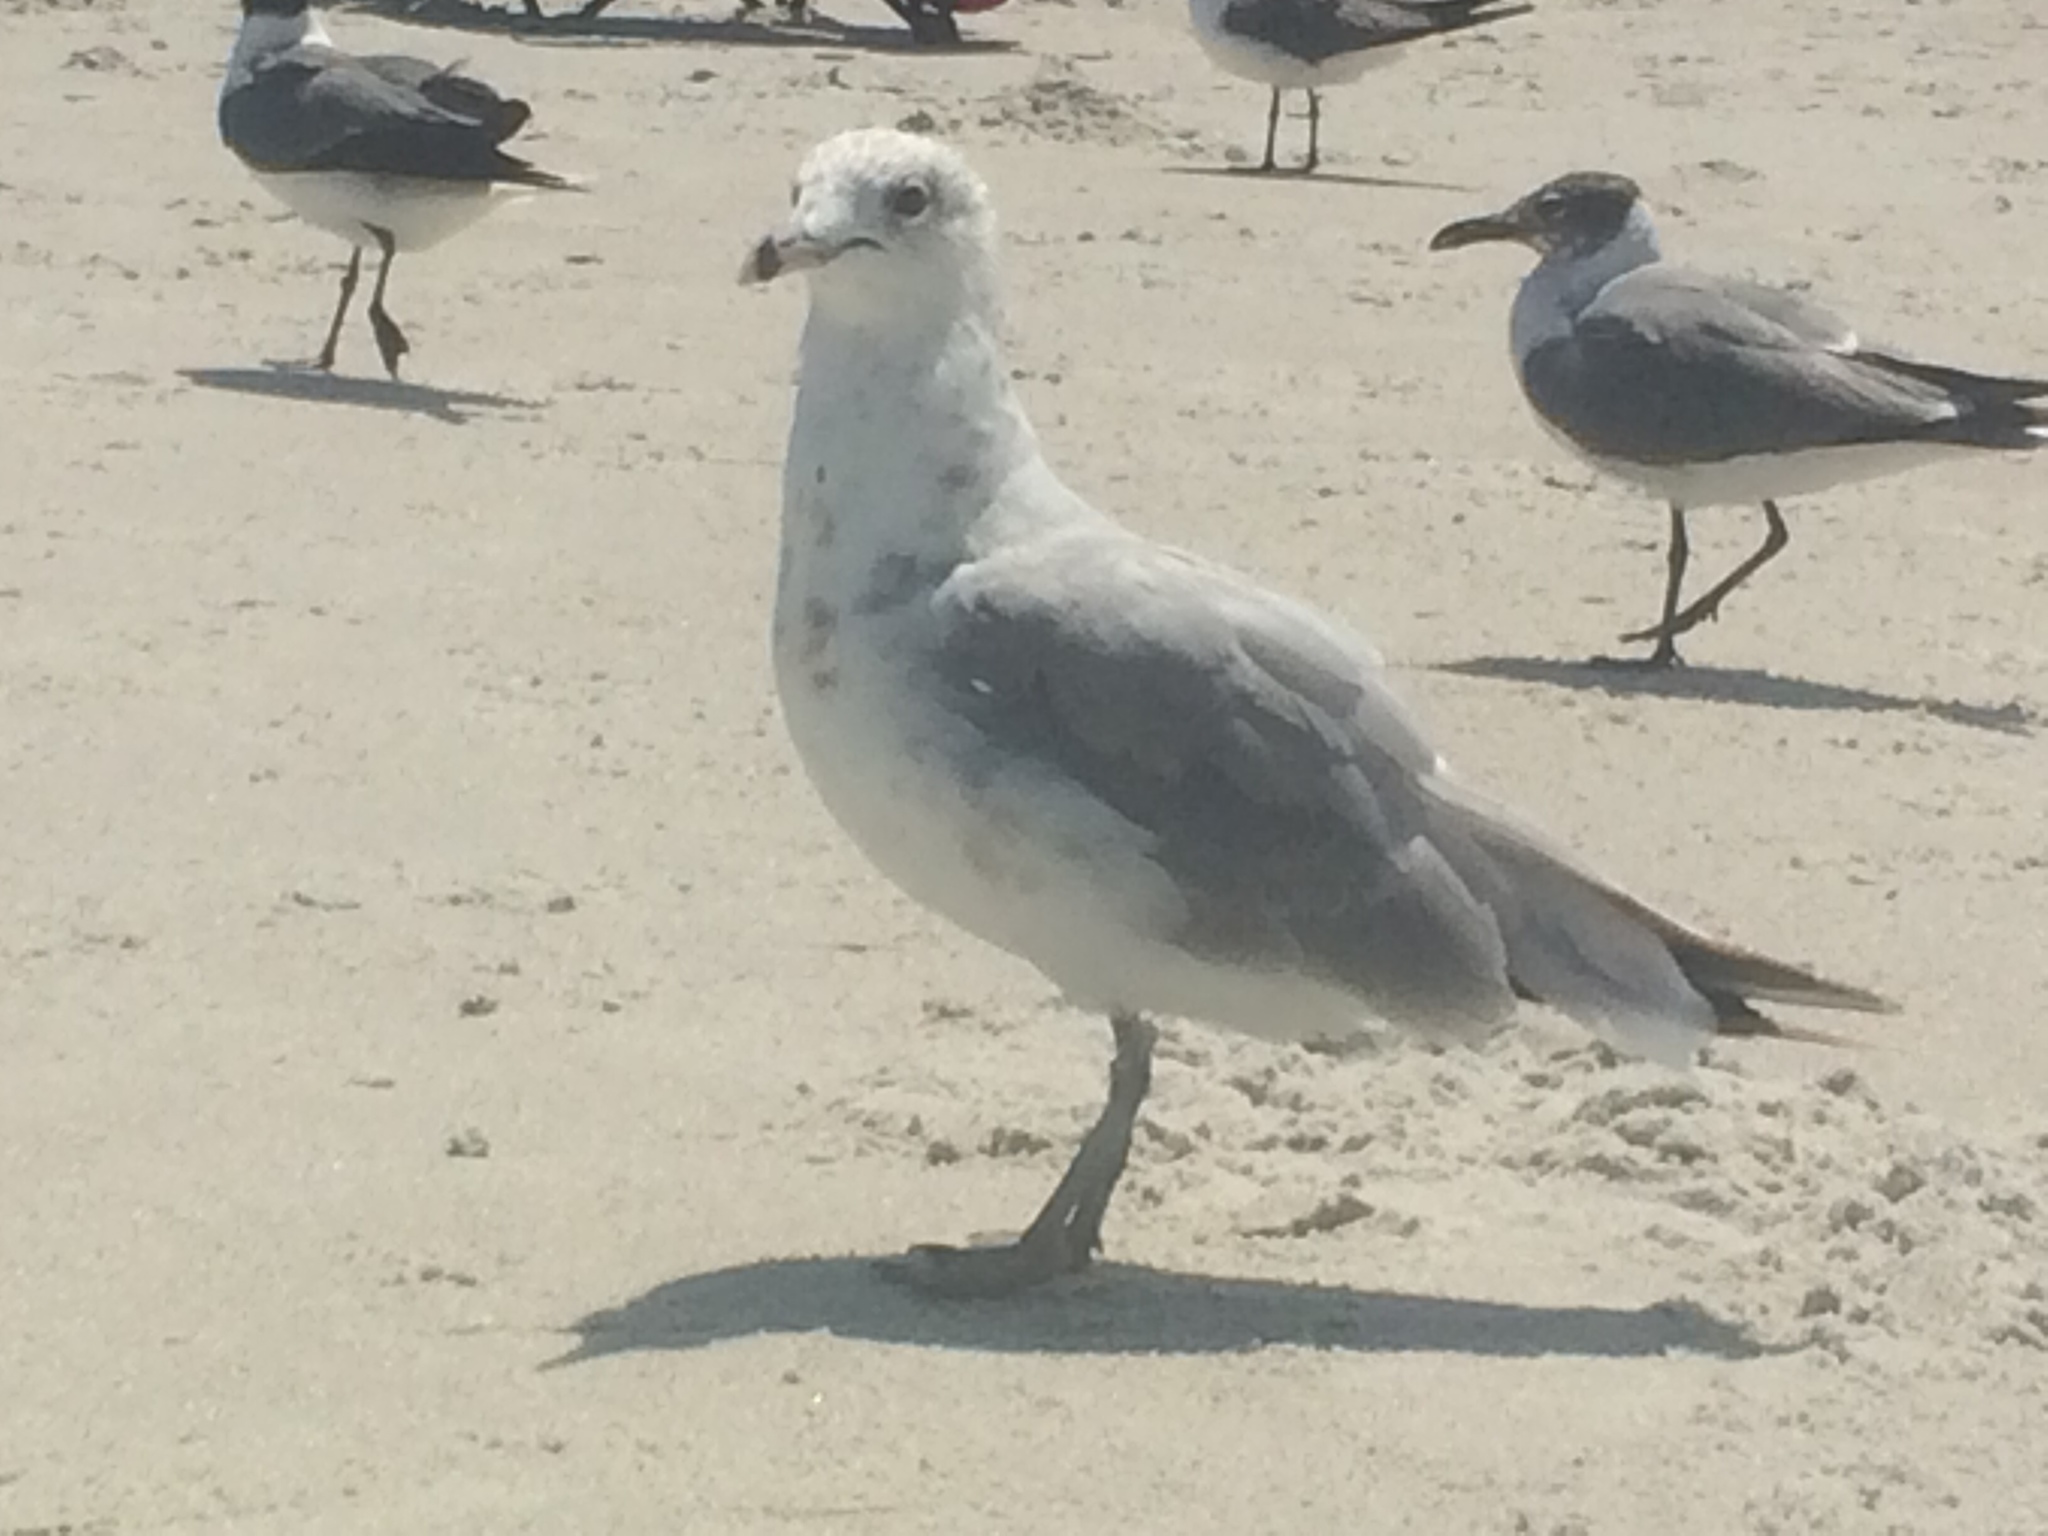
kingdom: Animalia
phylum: Chordata
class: Aves
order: Charadriiformes
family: Laridae
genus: Larus
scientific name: Larus delawarensis
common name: Ring-billed gull
